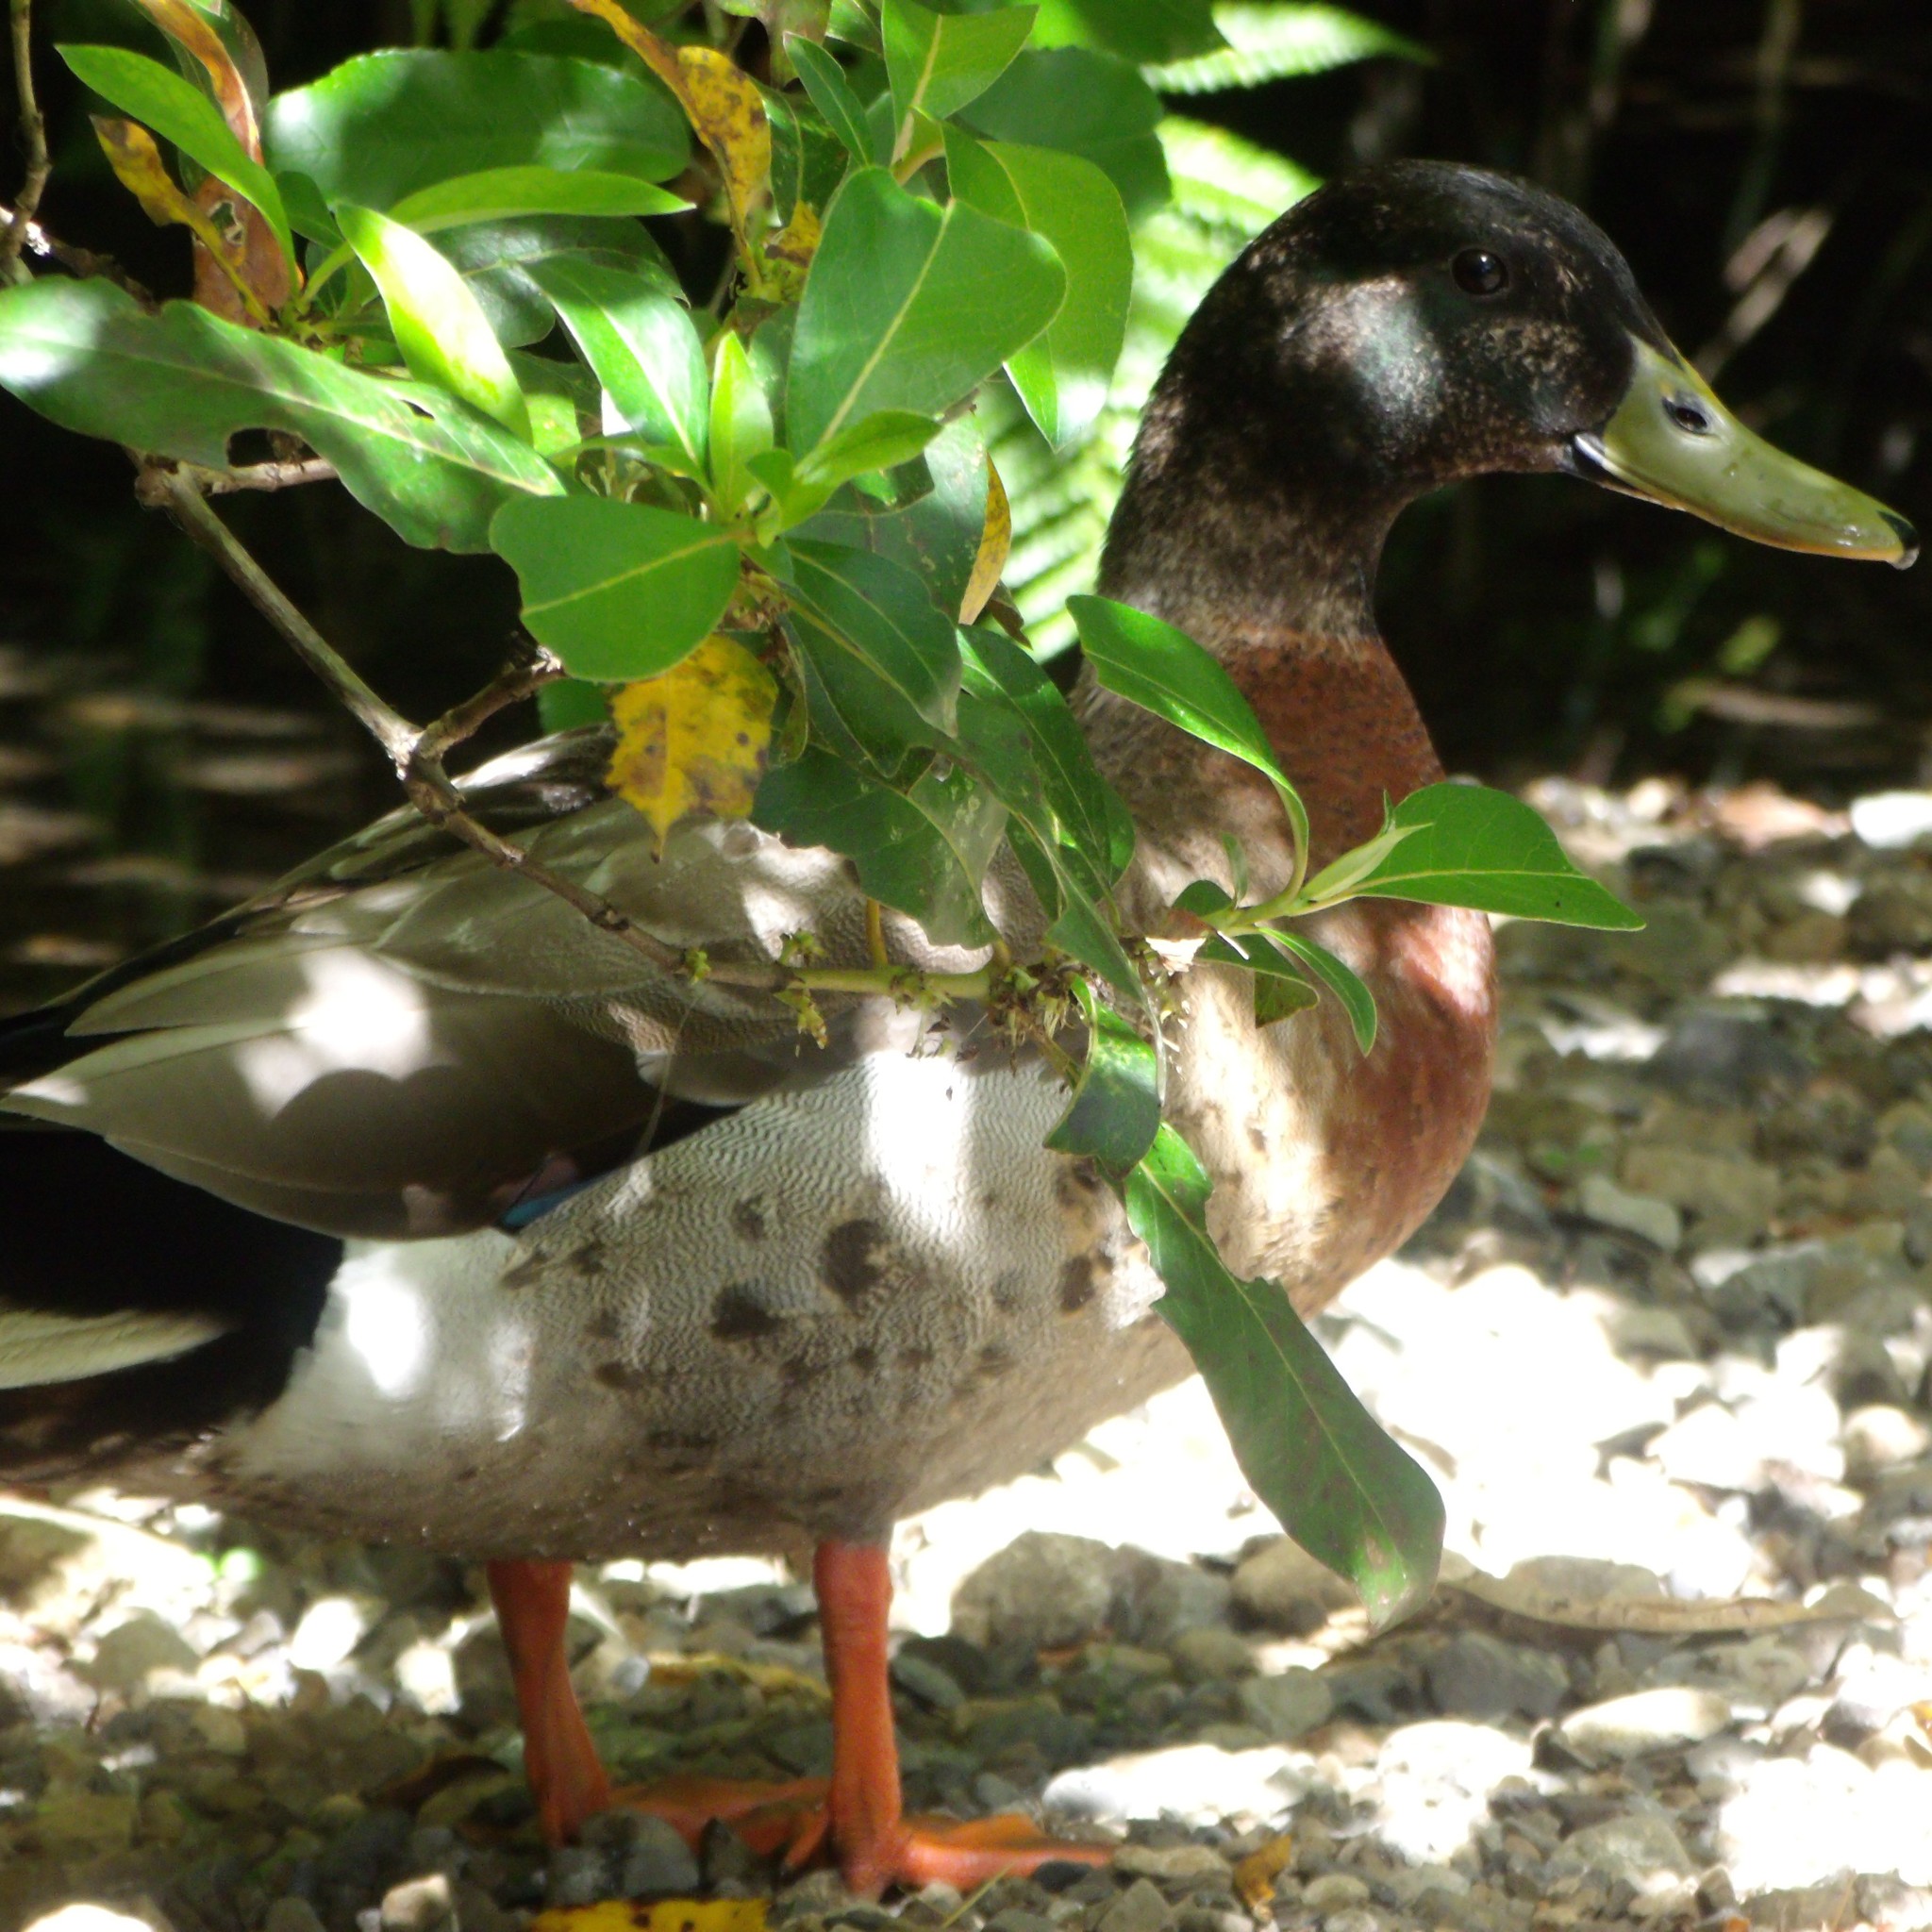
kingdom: Animalia
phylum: Chordata
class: Aves
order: Anseriformes
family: Anatidae
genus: Anas
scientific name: Anas platyrhynchos
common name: Mallard
